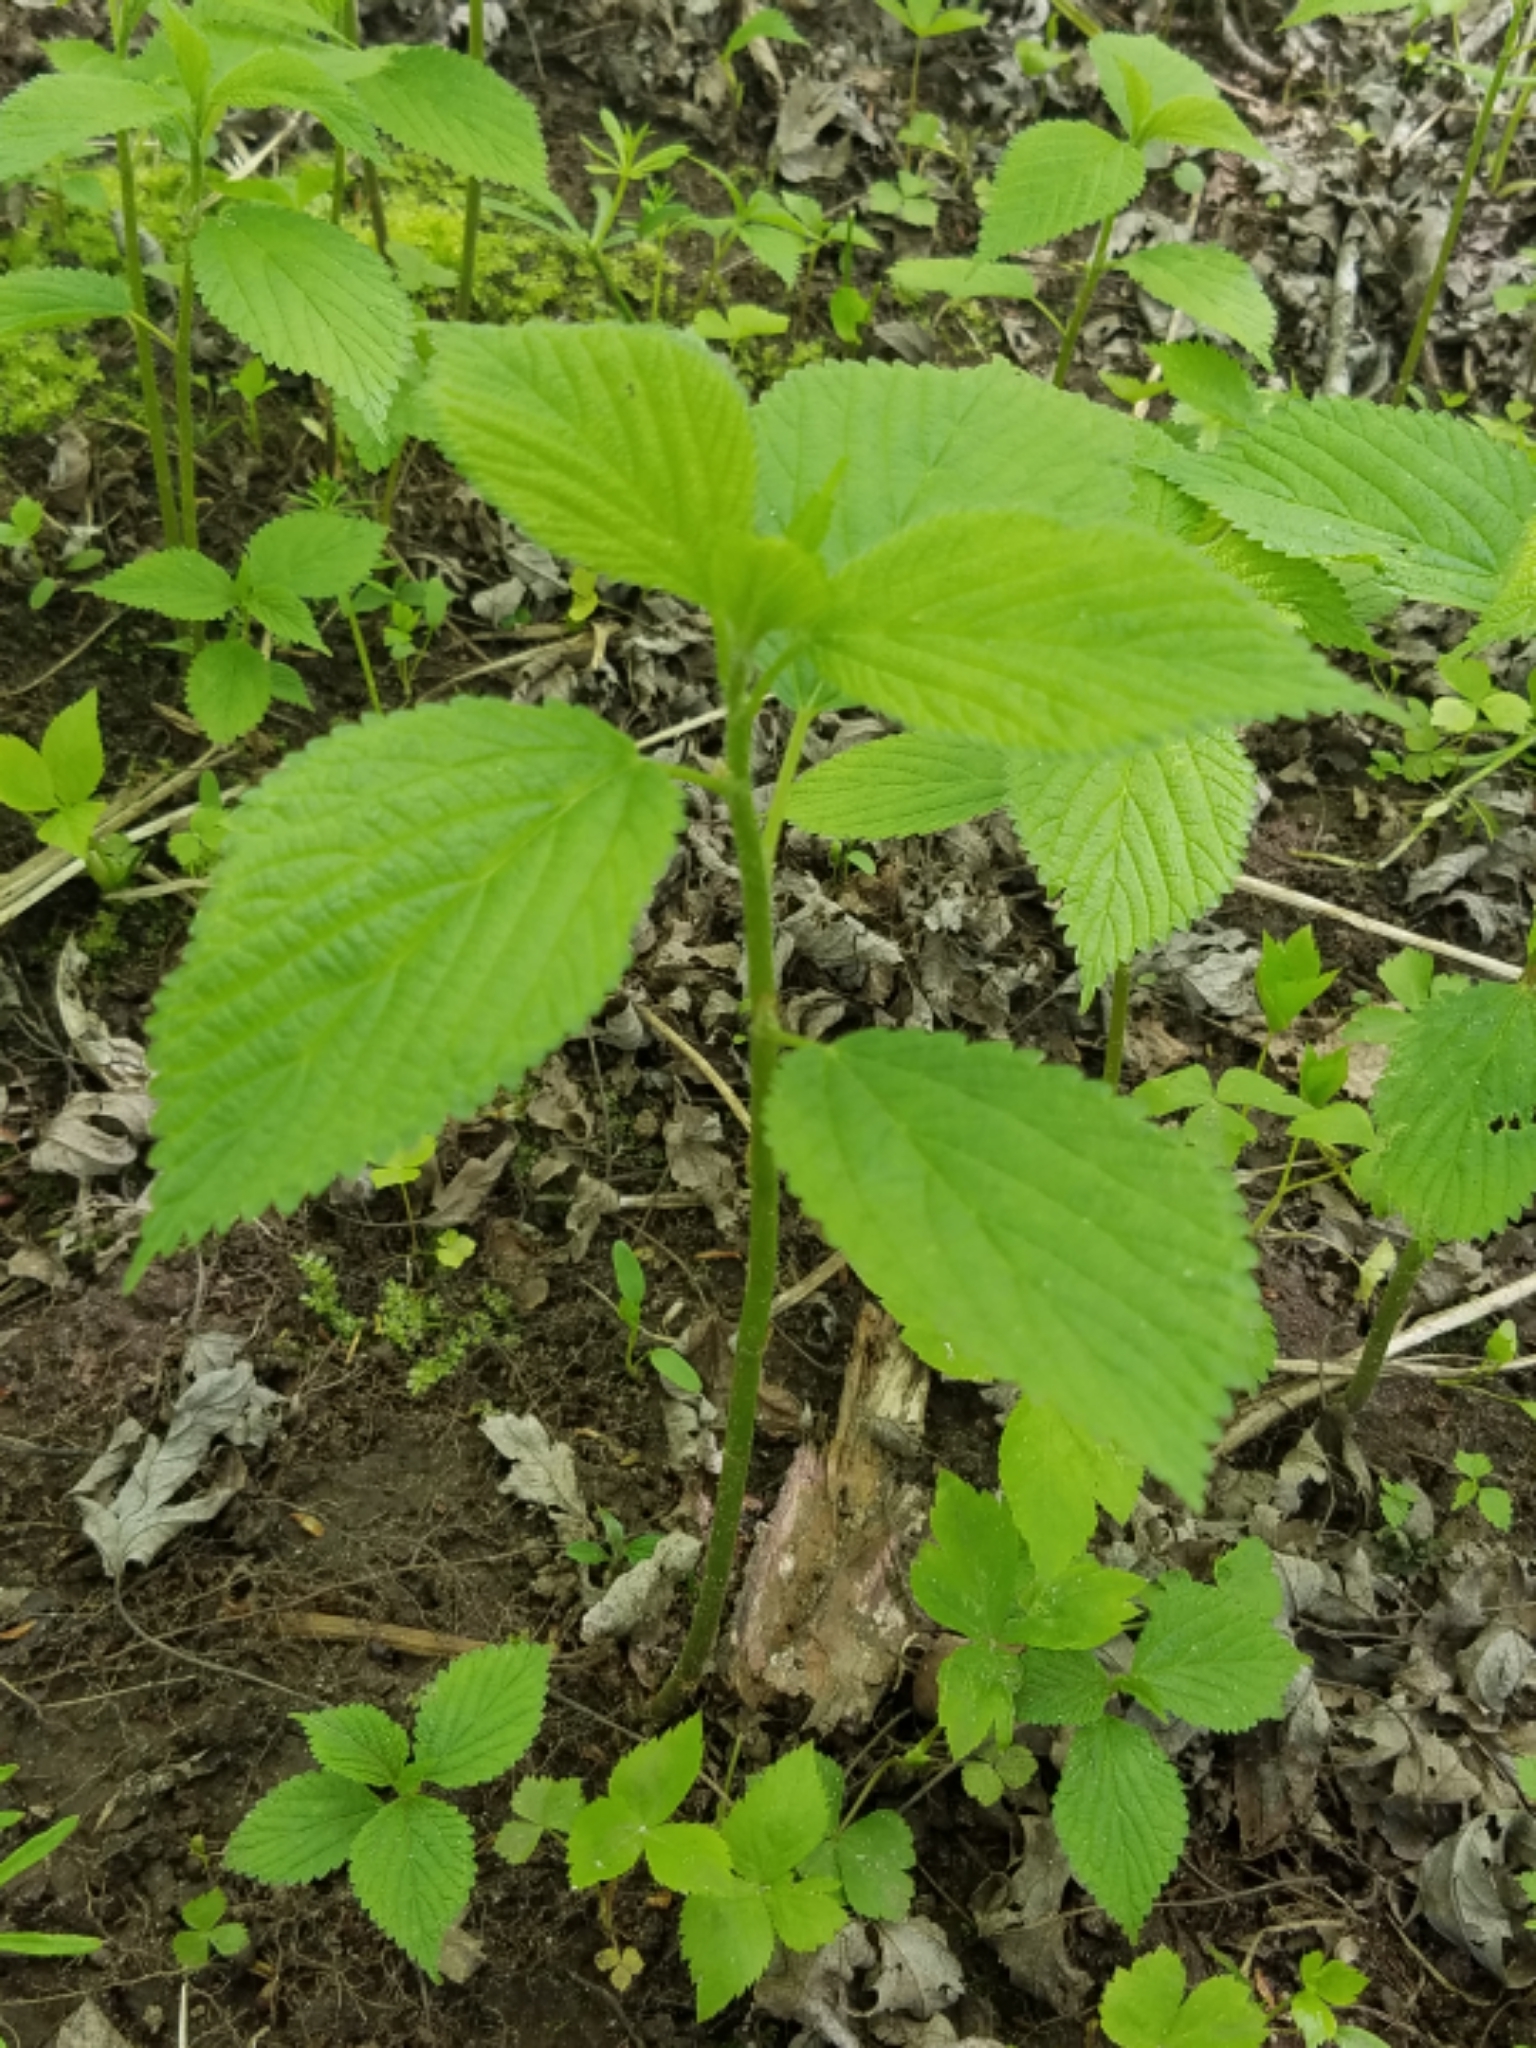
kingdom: Plantae
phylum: Tracheophyta
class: Magnoliopsida
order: Rosales
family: Urticaceae
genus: Laportea
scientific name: Laportea canadensis
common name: Canada nettle
